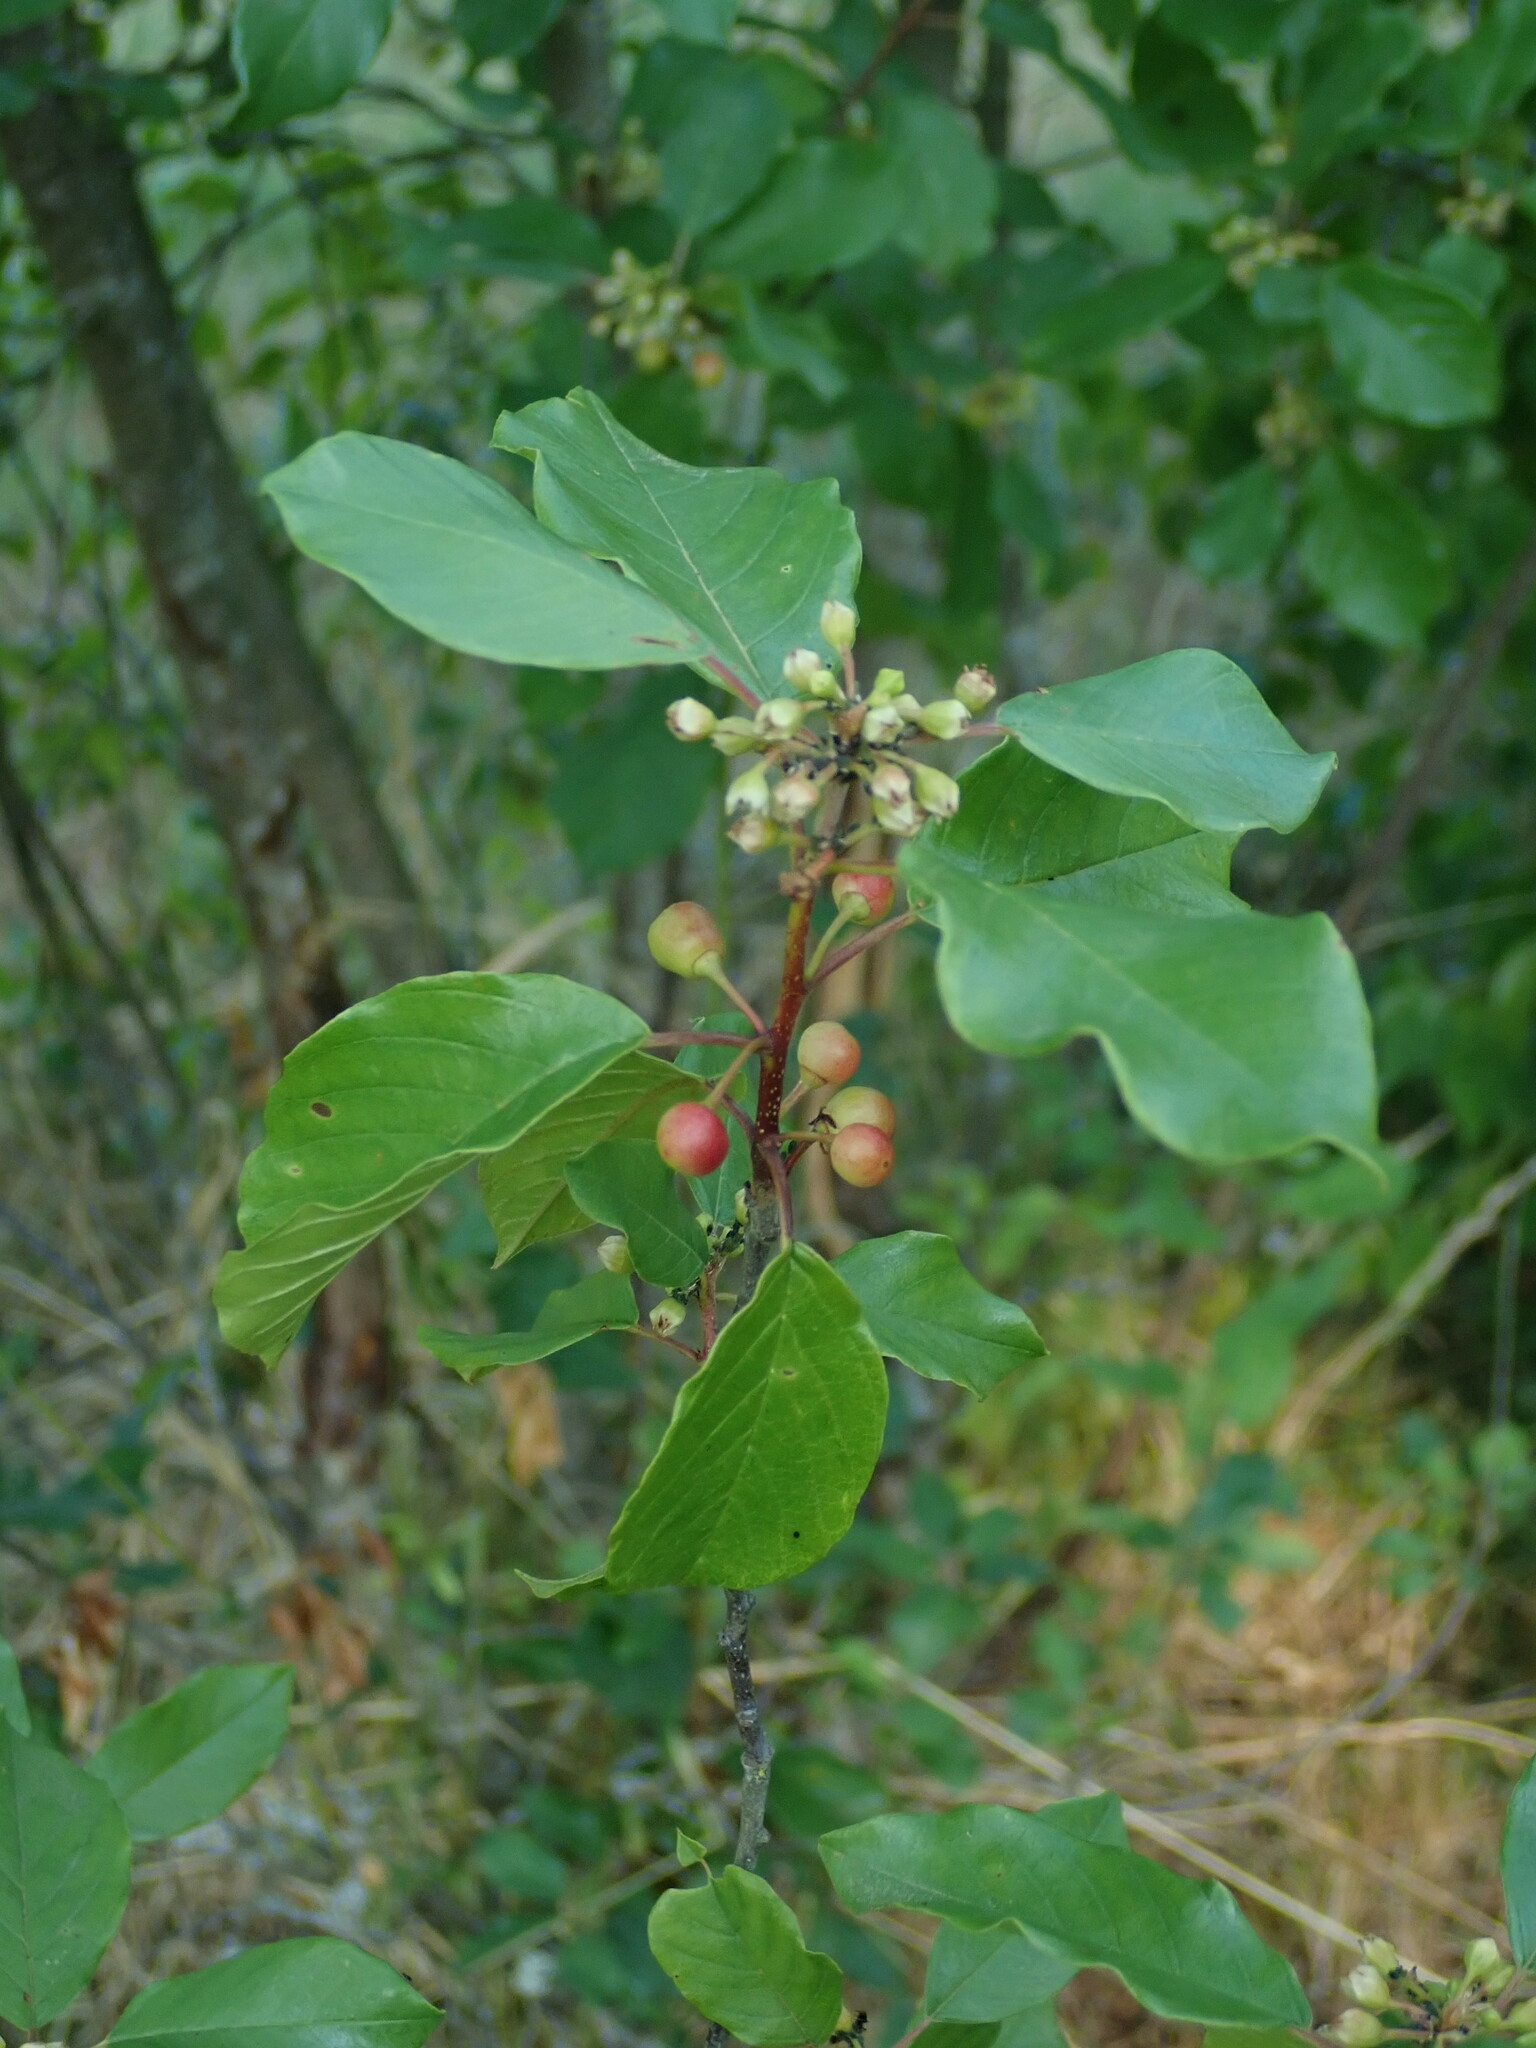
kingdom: Plantae
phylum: Tracheophyta
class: Magnoliopsida
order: Rosales
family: Rhamnaceae
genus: Frangula
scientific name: Frangula alnus
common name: Alder buckthorn
